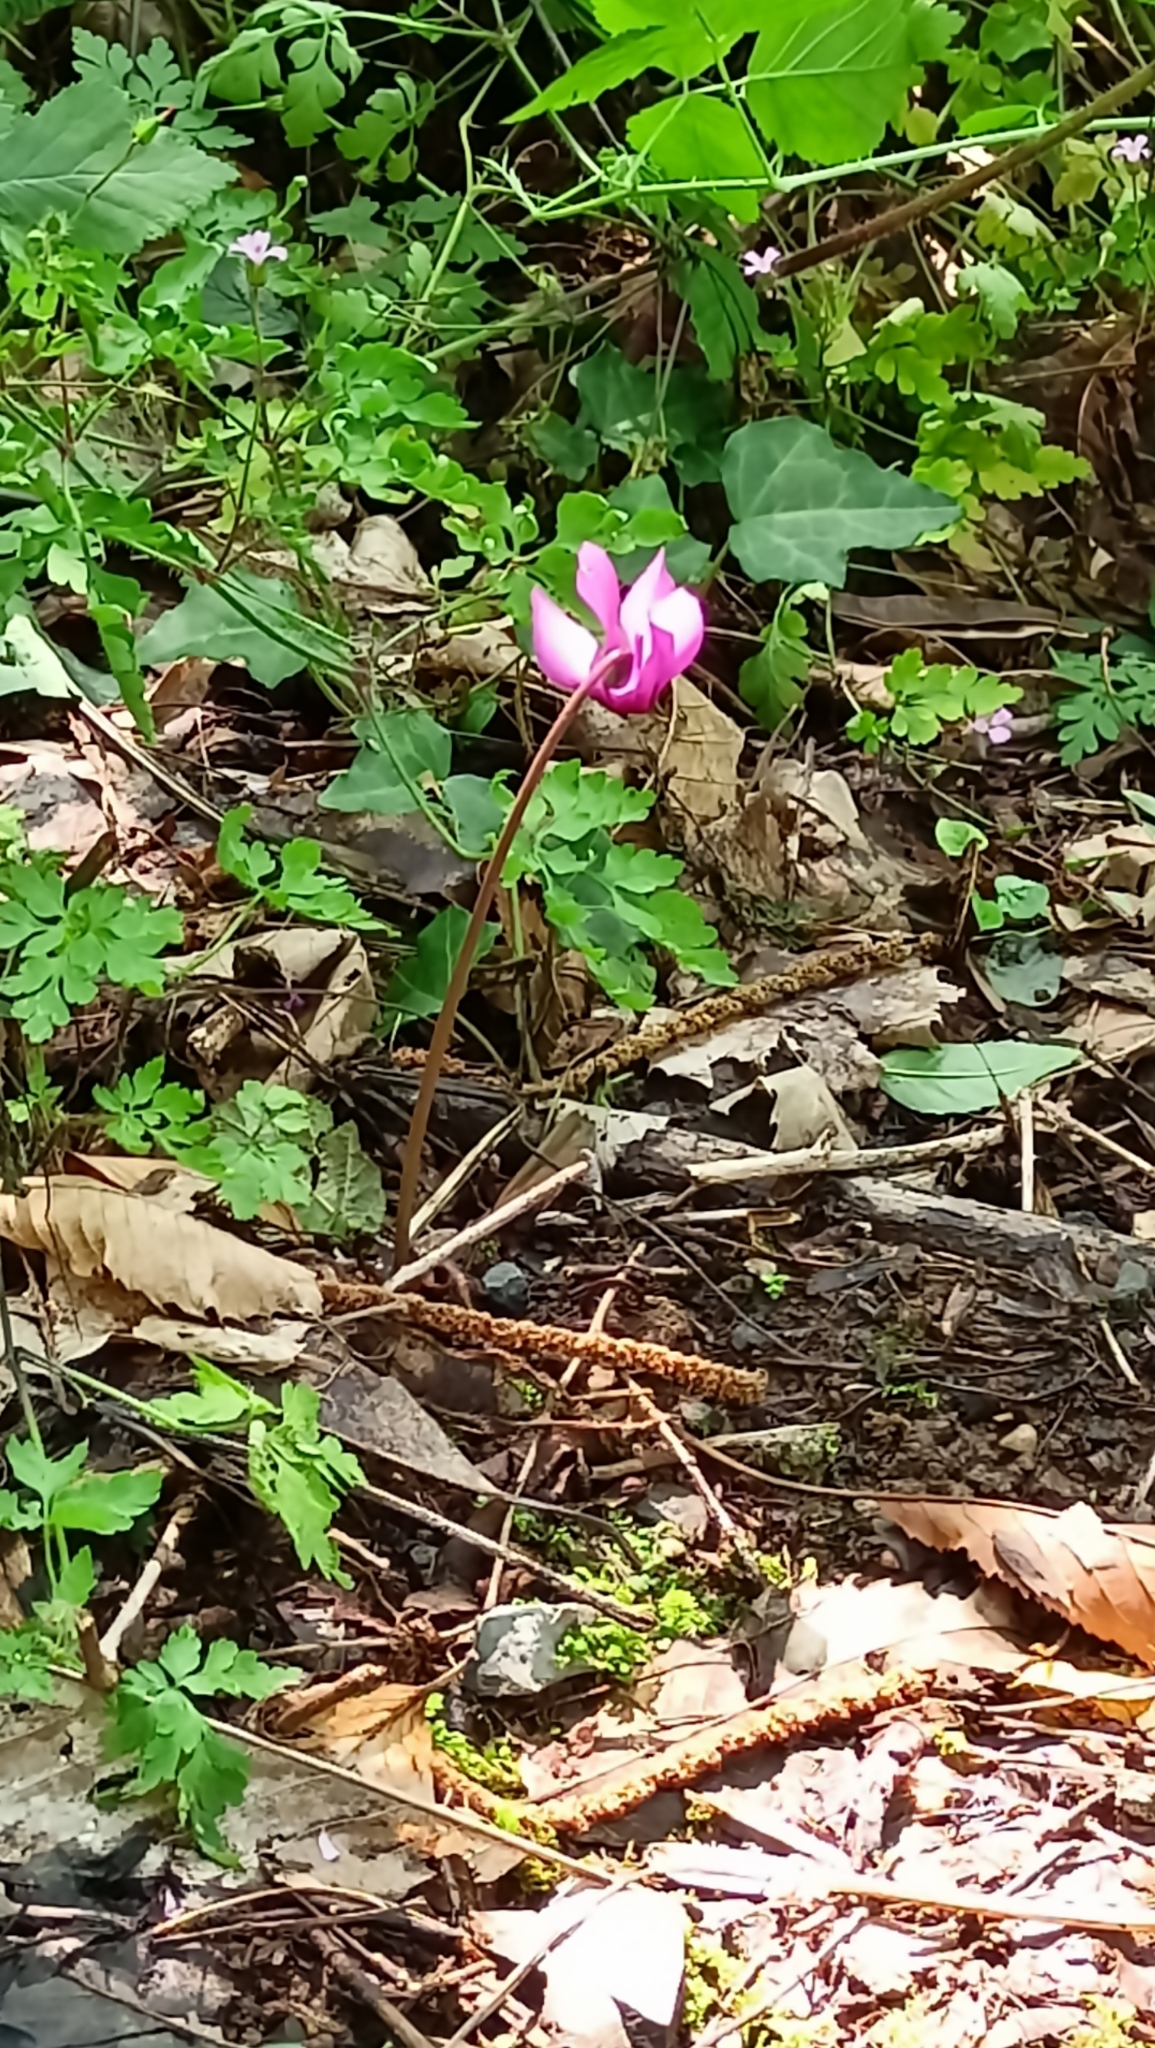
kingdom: Plantae
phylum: Tracheophyta
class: Magnoliopsida
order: Ericales
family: Primulaceae
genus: Cyclamen
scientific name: Cyclamen purpurascens
